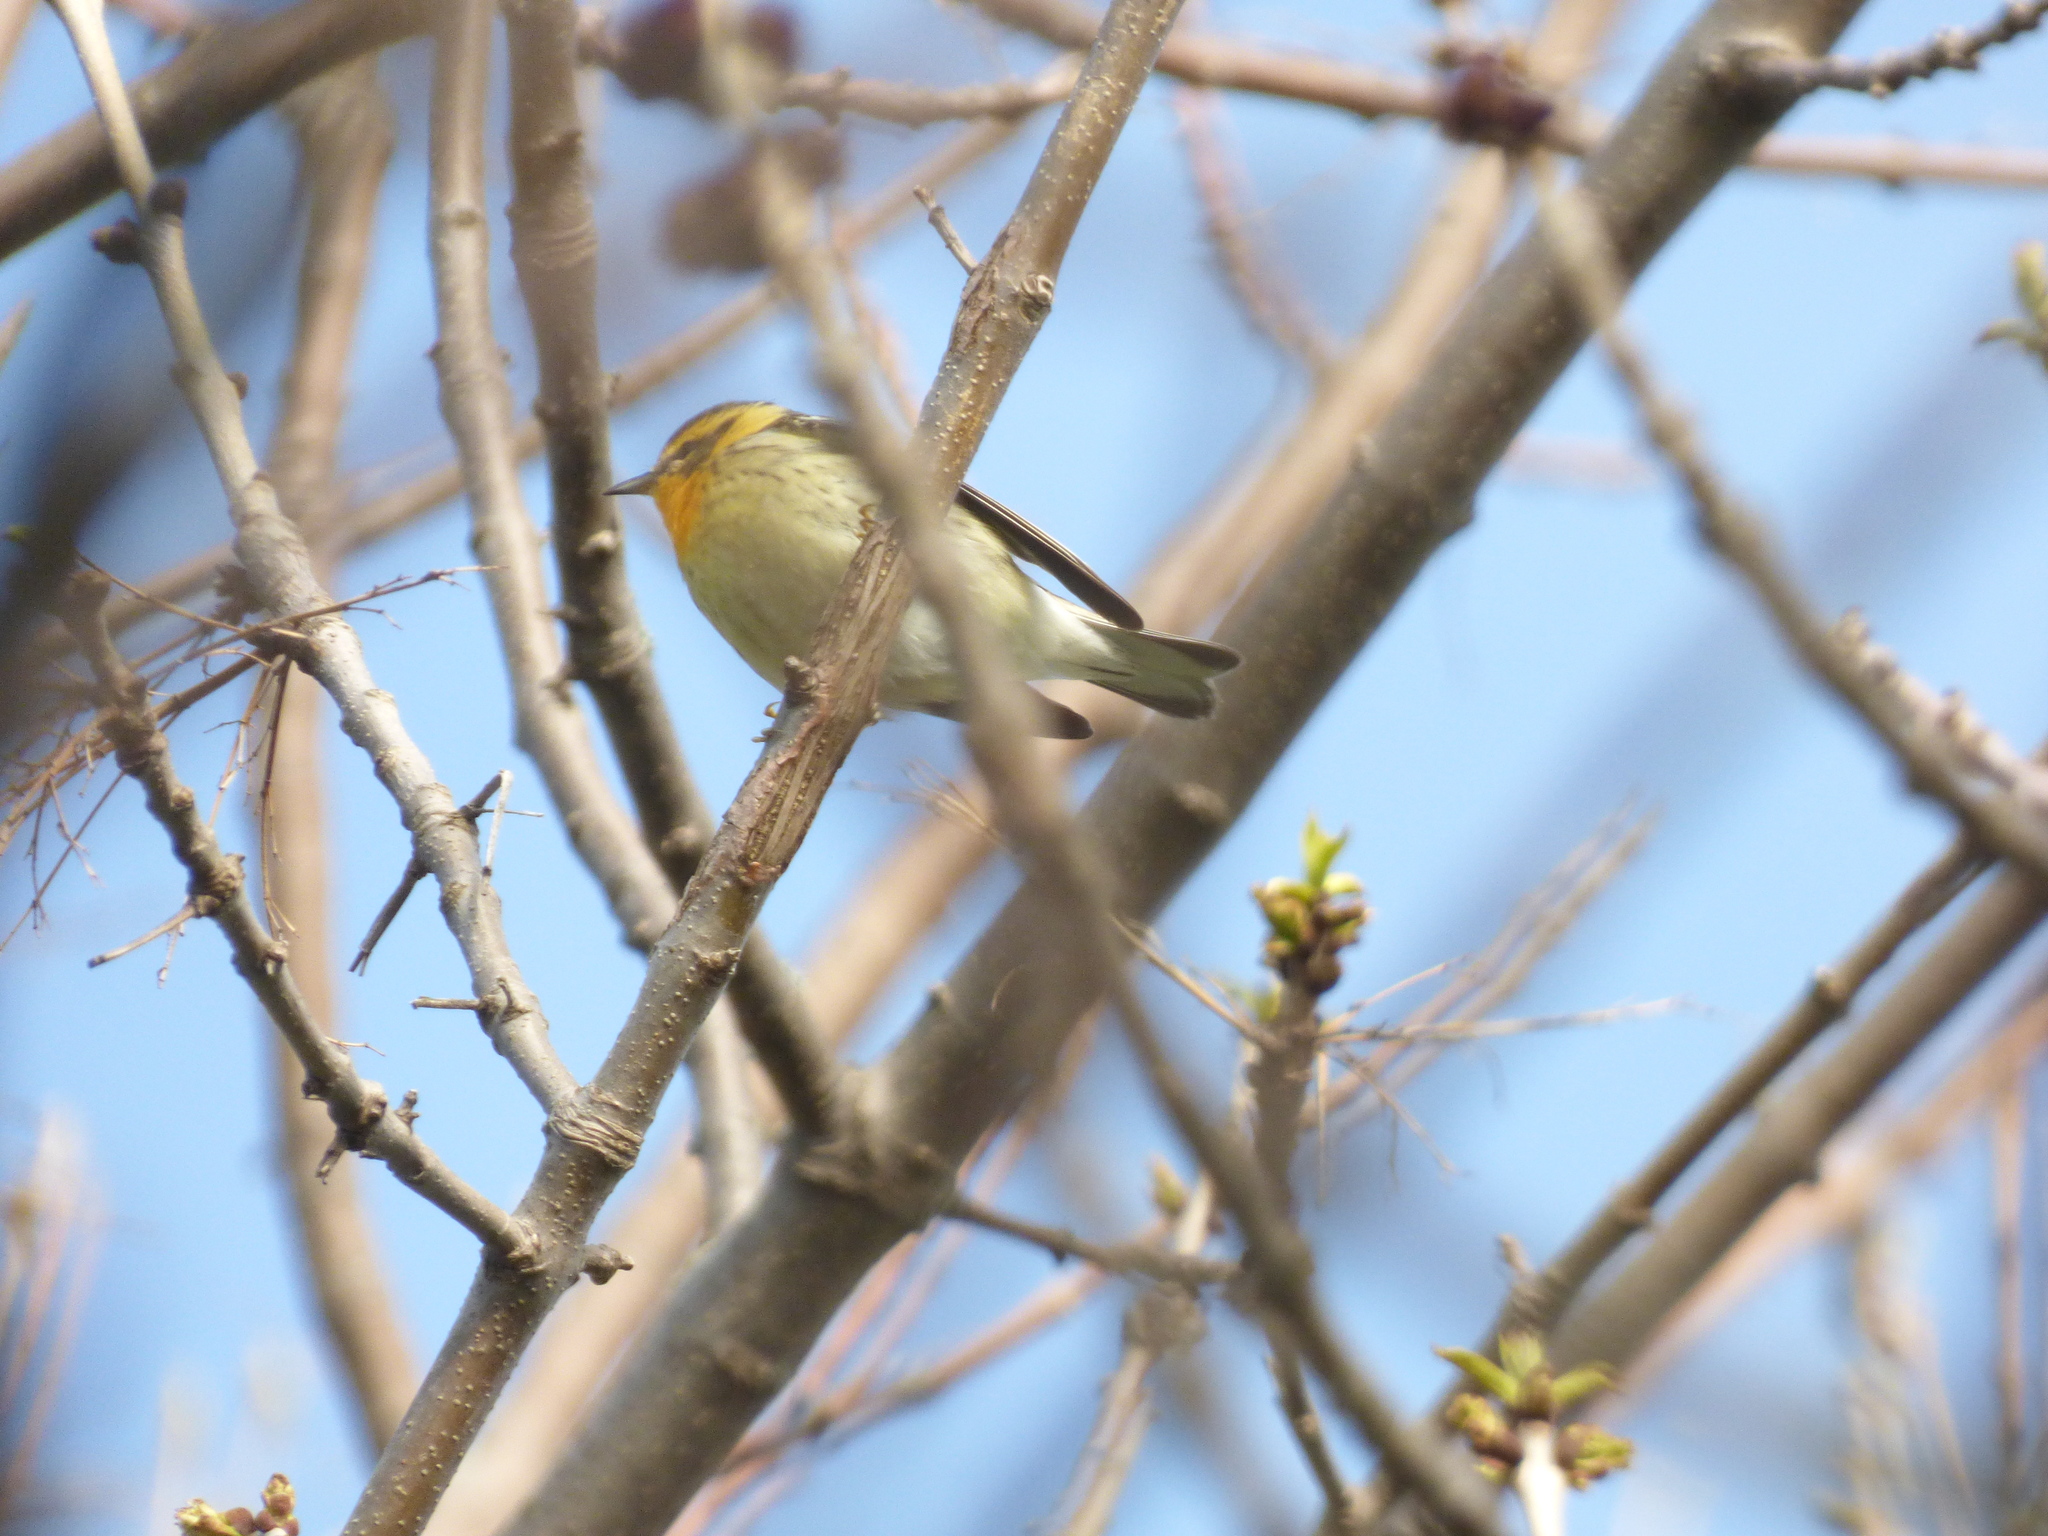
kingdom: Animalia
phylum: Chordata
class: Aves
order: Passeriformes
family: Parulidae
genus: Setophaga
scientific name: Setophaga fusca
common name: Blackburnian warbler
